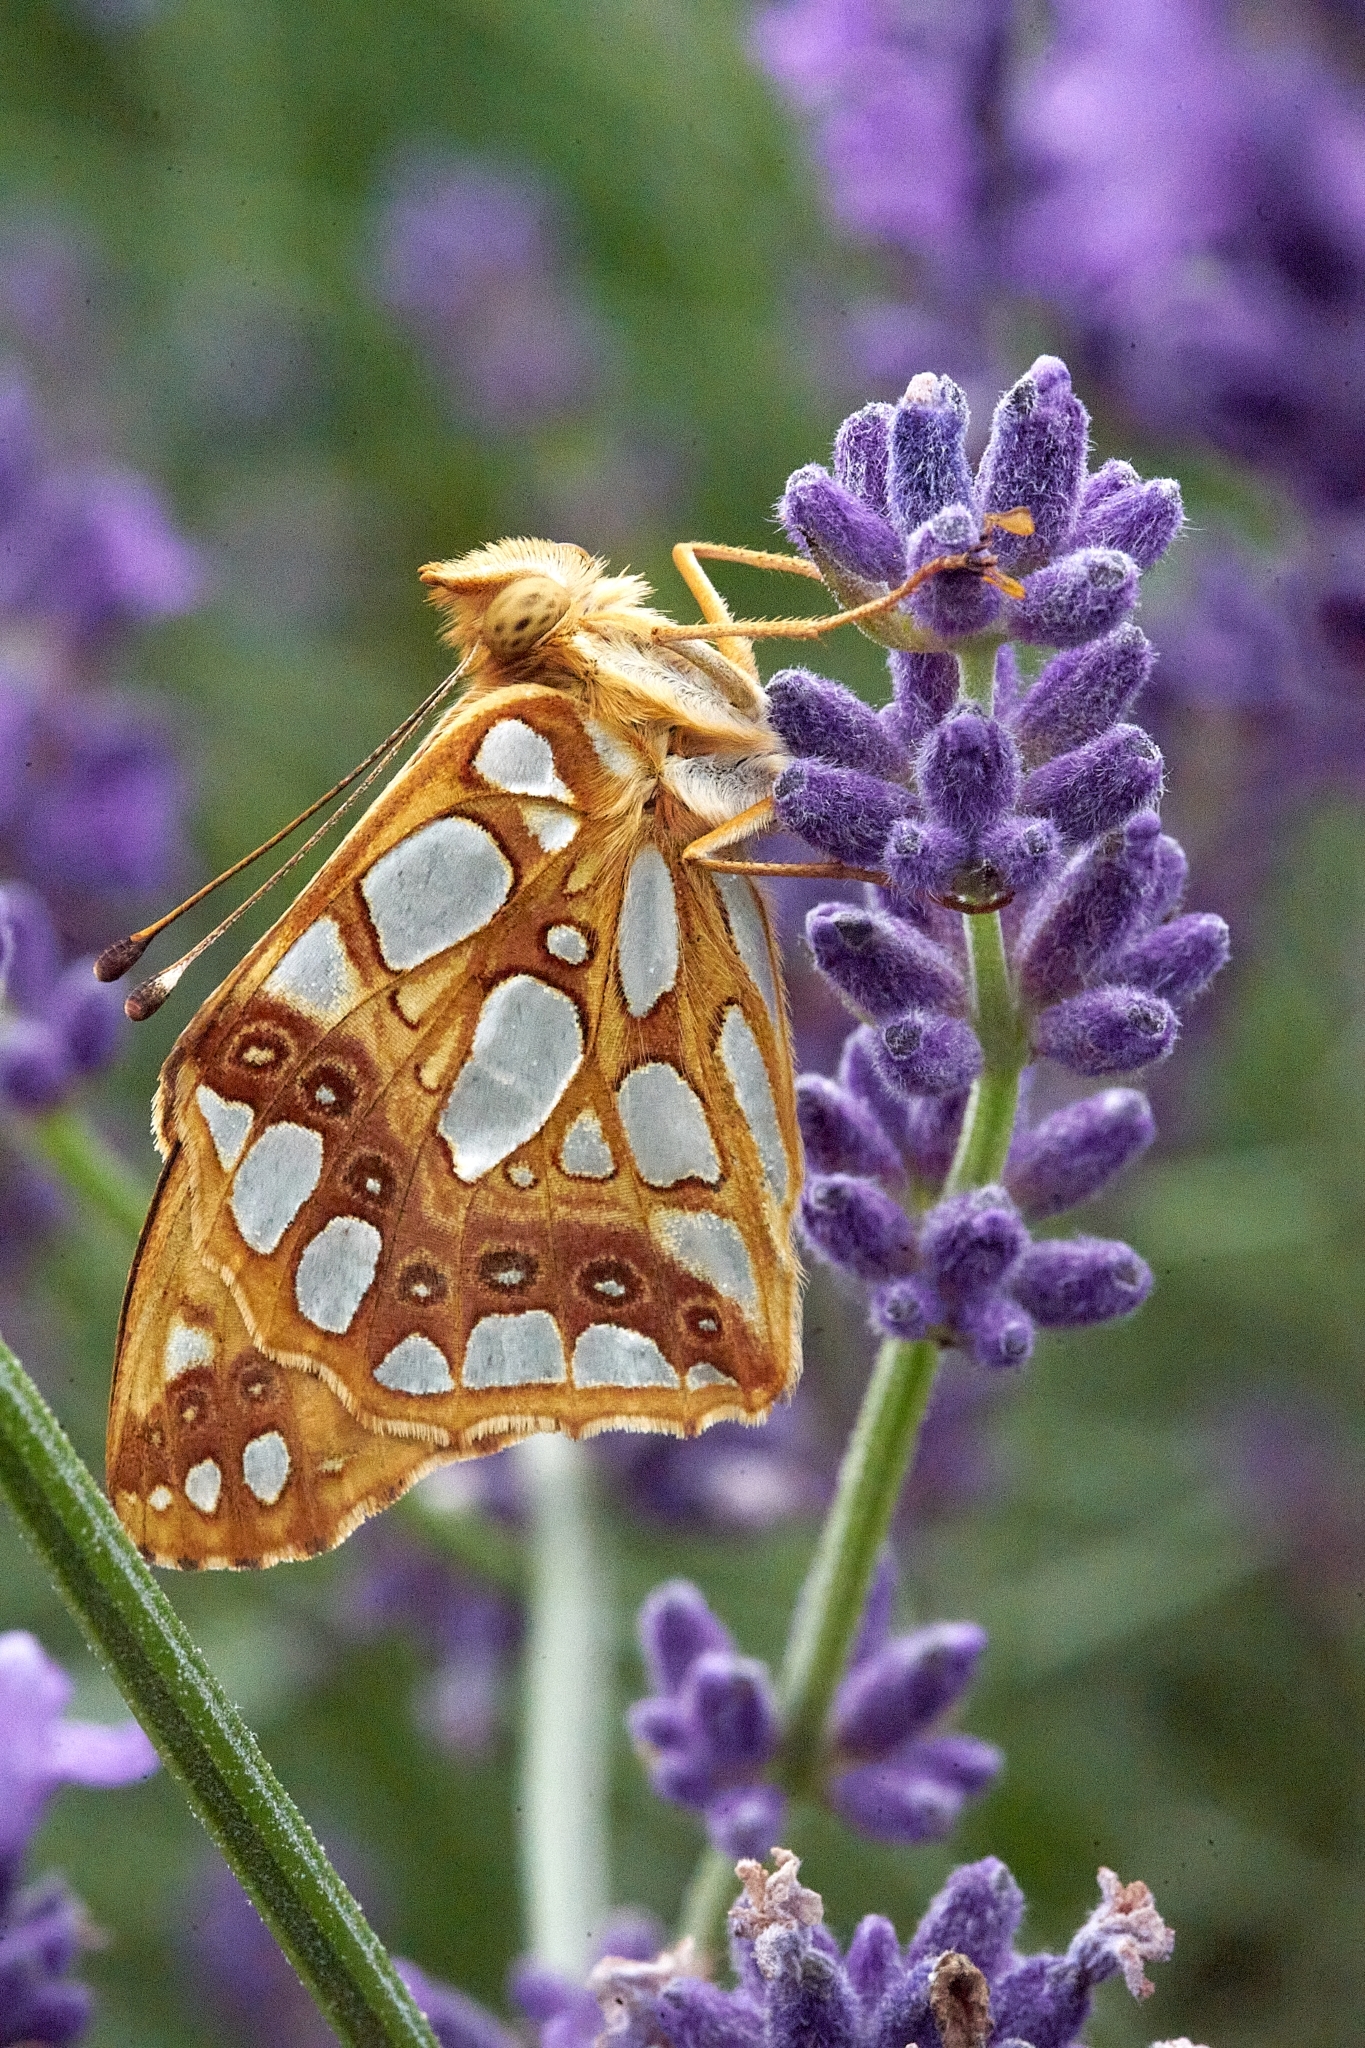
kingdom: Animalia
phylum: Arthropoda
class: Insecta
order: Lepidoptera
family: Nymphalidae
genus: Issoria
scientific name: Issoria lathonia
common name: Queen of spain fritillary
